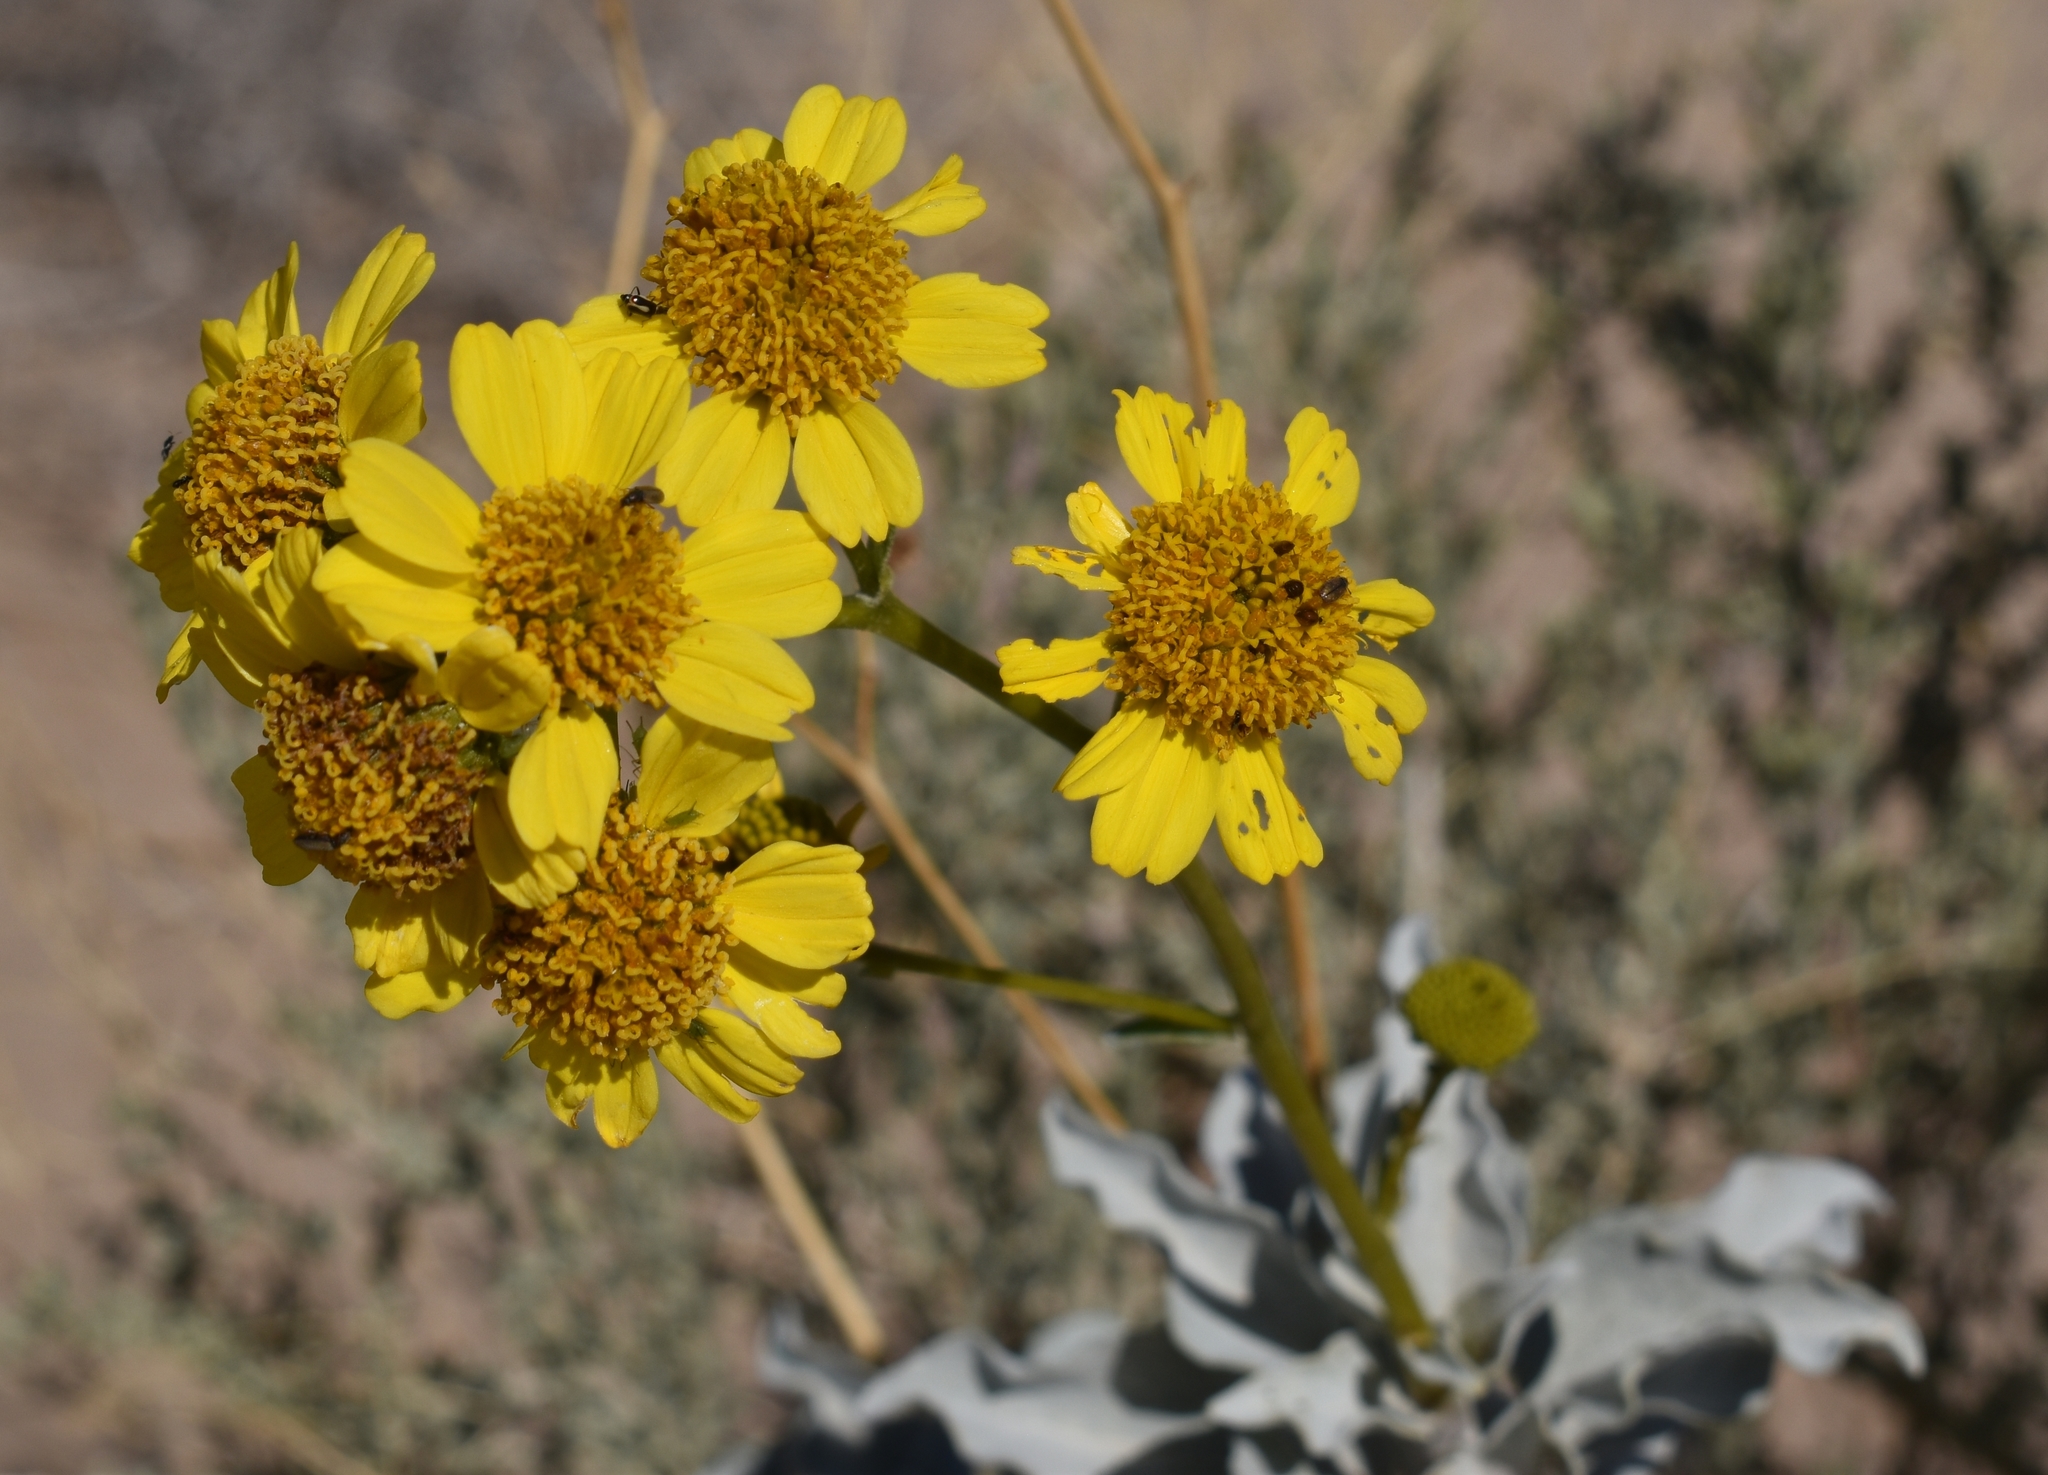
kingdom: Plantae
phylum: Tracheophyta
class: Magnoliopsida
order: Asterales
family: Asteraceae
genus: Encelia
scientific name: Encelia farinosa
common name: Brittlebush
